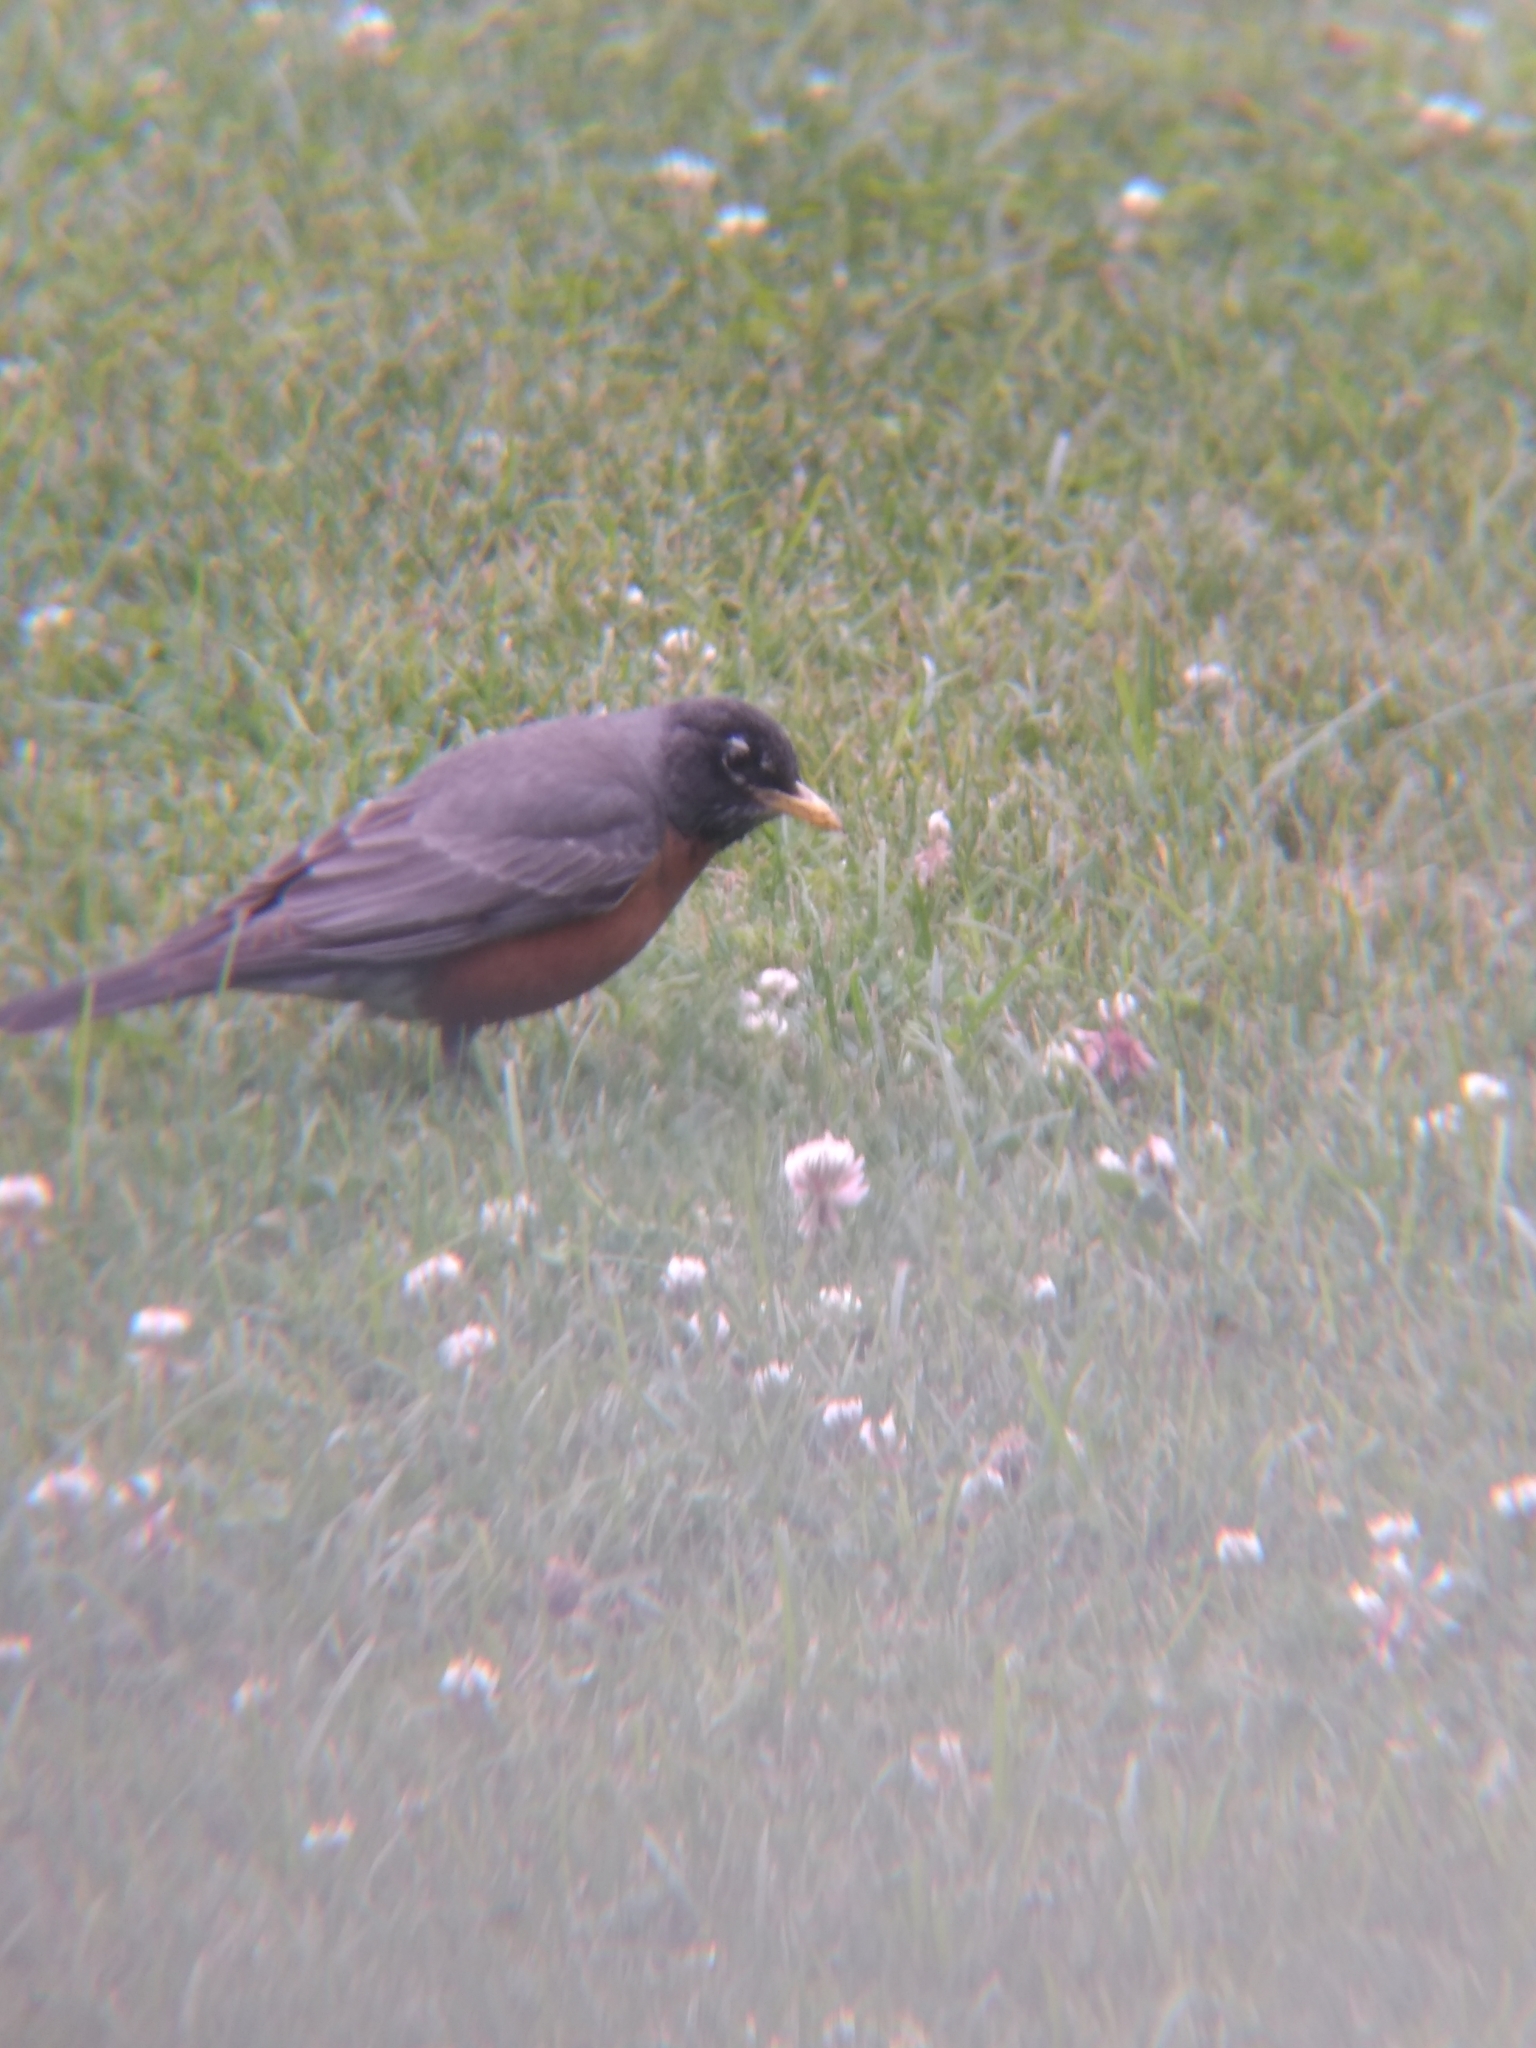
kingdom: Animalia
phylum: Chordata
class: Aves
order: Passeriformes
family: Turdidae
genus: Turdus
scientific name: Turdus migratorius
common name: American robin
